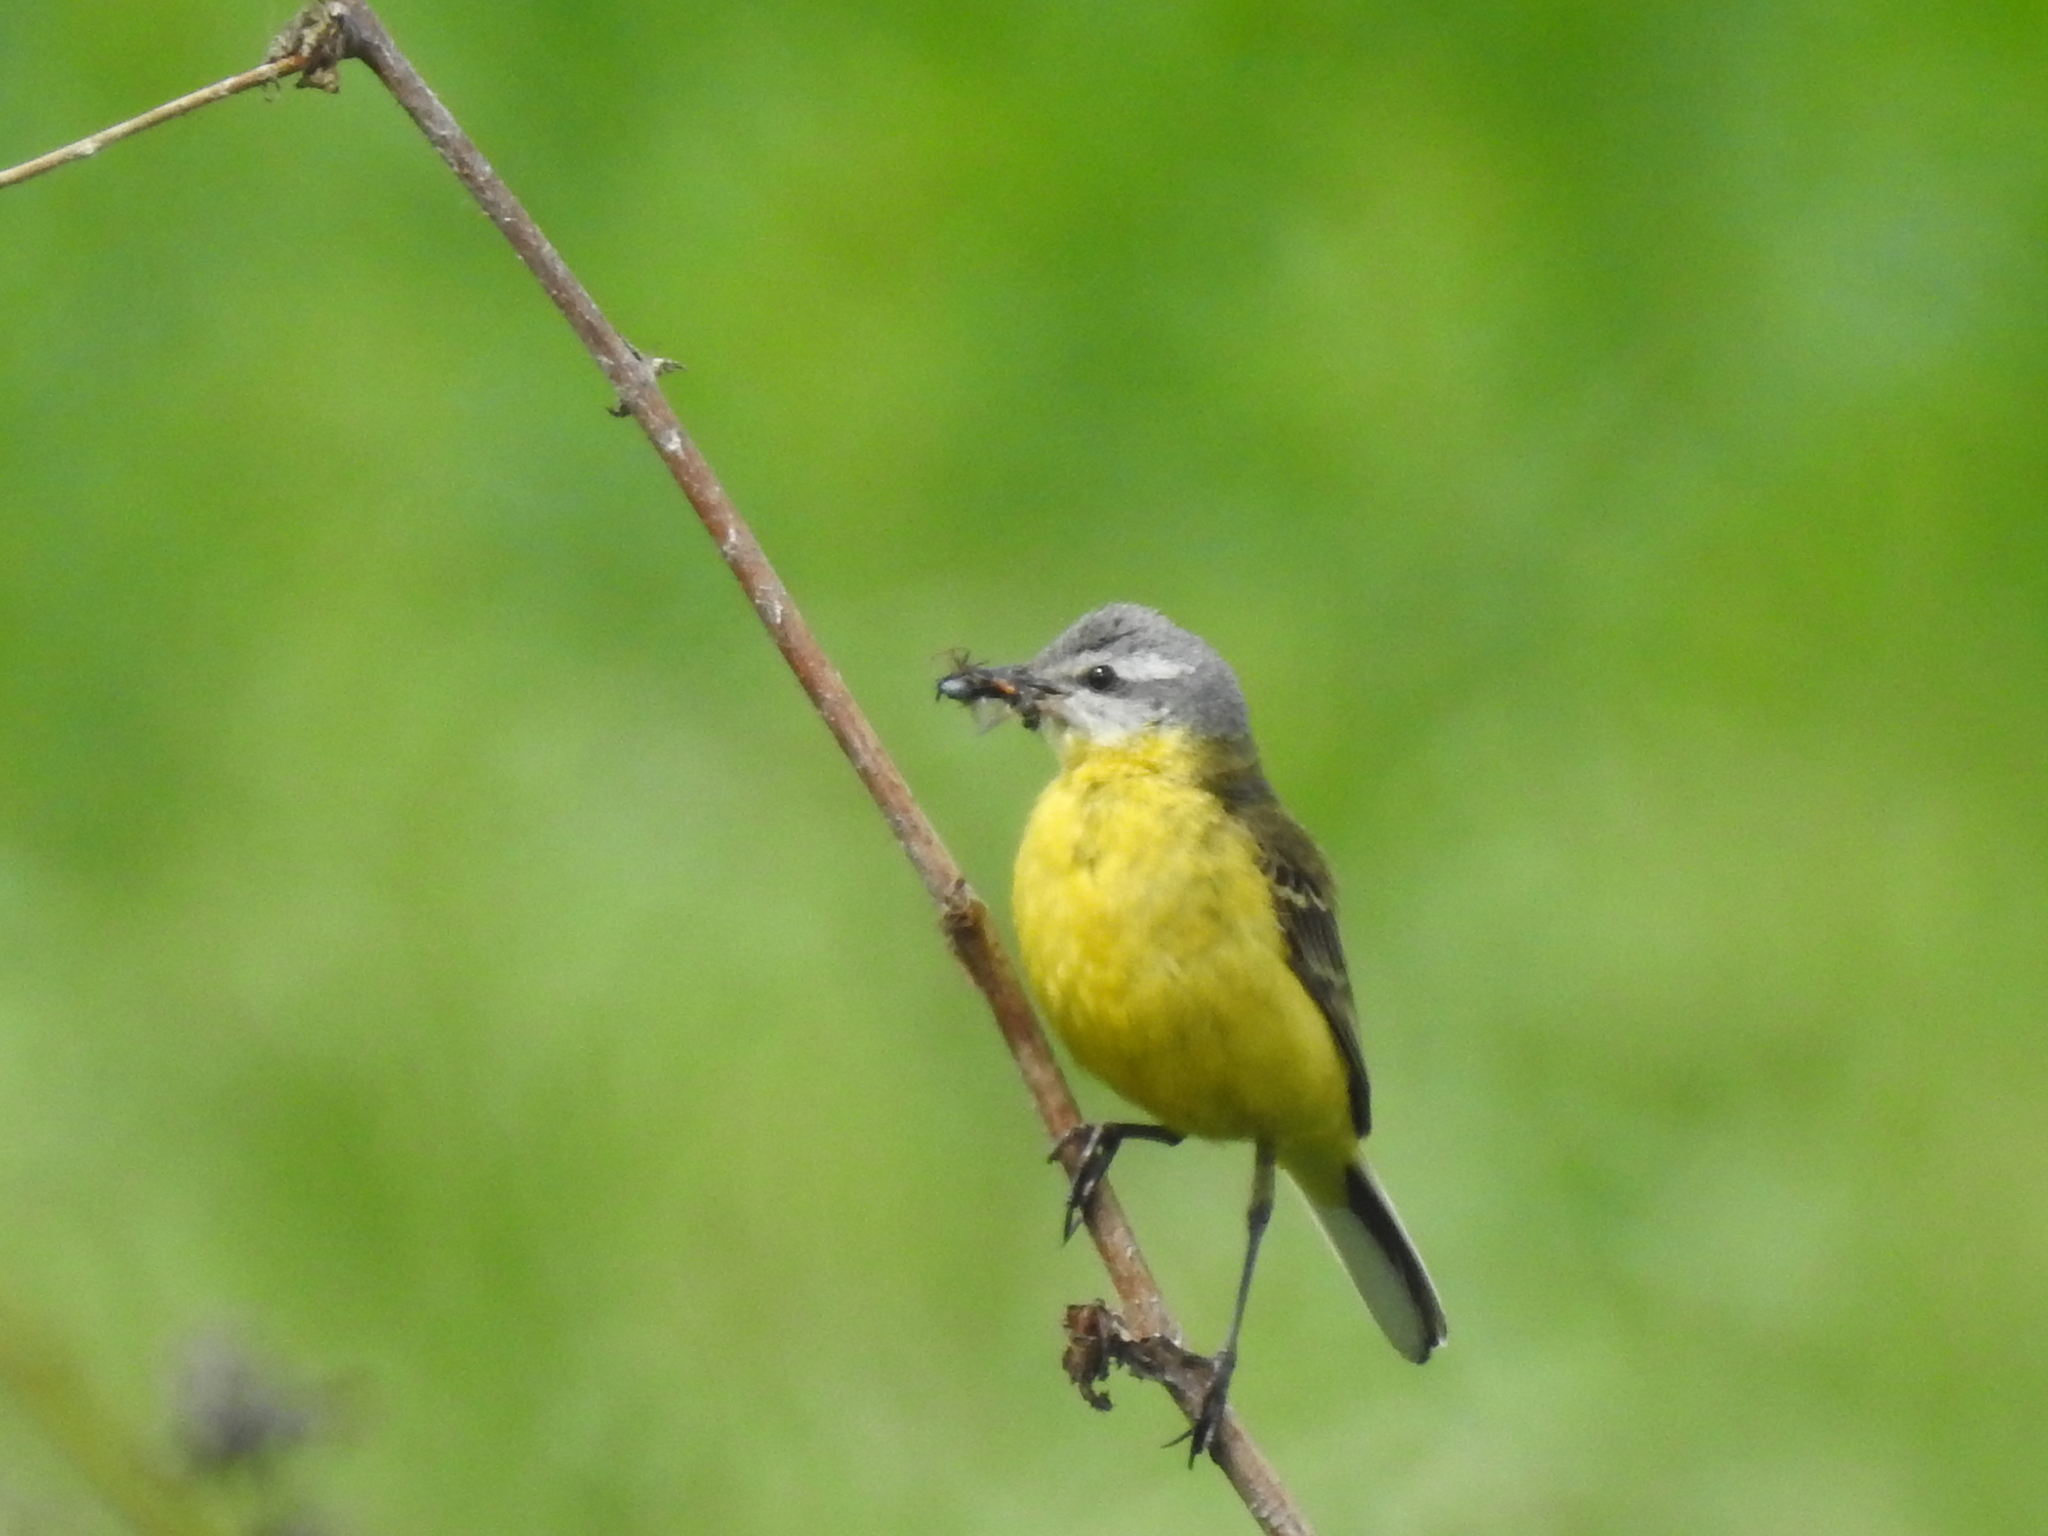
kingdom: Animalia
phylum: Chordata
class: Aves
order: Passeriformes
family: Motacillidae
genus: Motacilla
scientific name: Motacilla flava
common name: Western yellow wagtail
